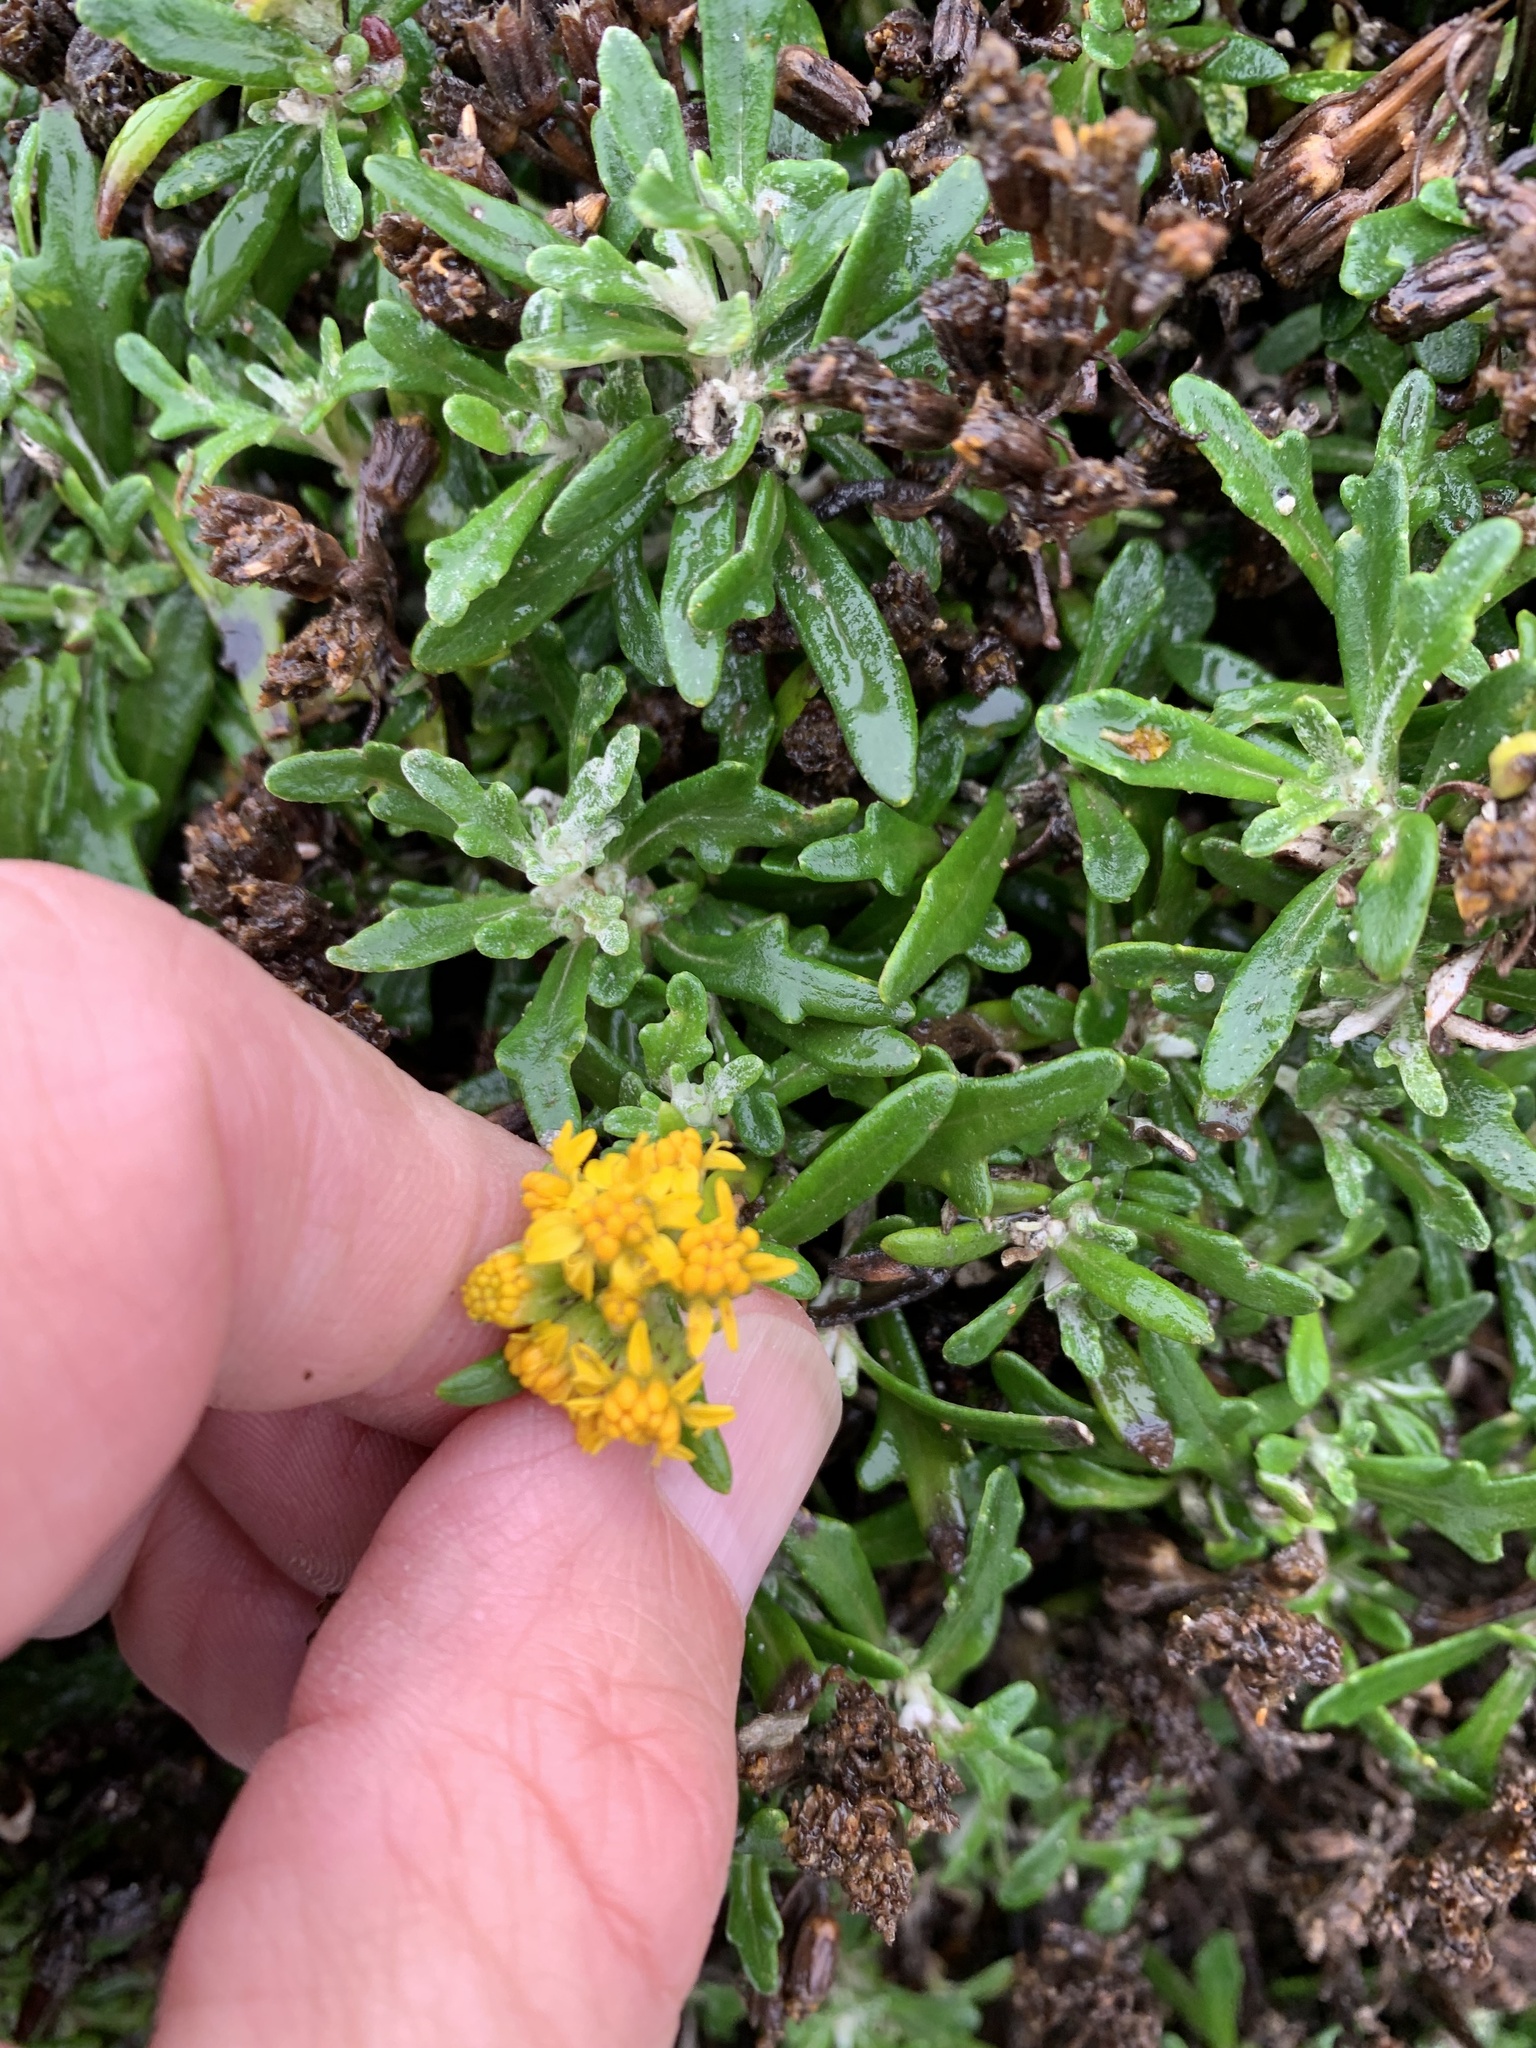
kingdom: Plantae
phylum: Tracheophyta
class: Magnoliopsida
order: Asterales
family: Asteraceae
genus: Eriophyllum
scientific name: Eriophyllum staechadifolium
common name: Lizardtail
